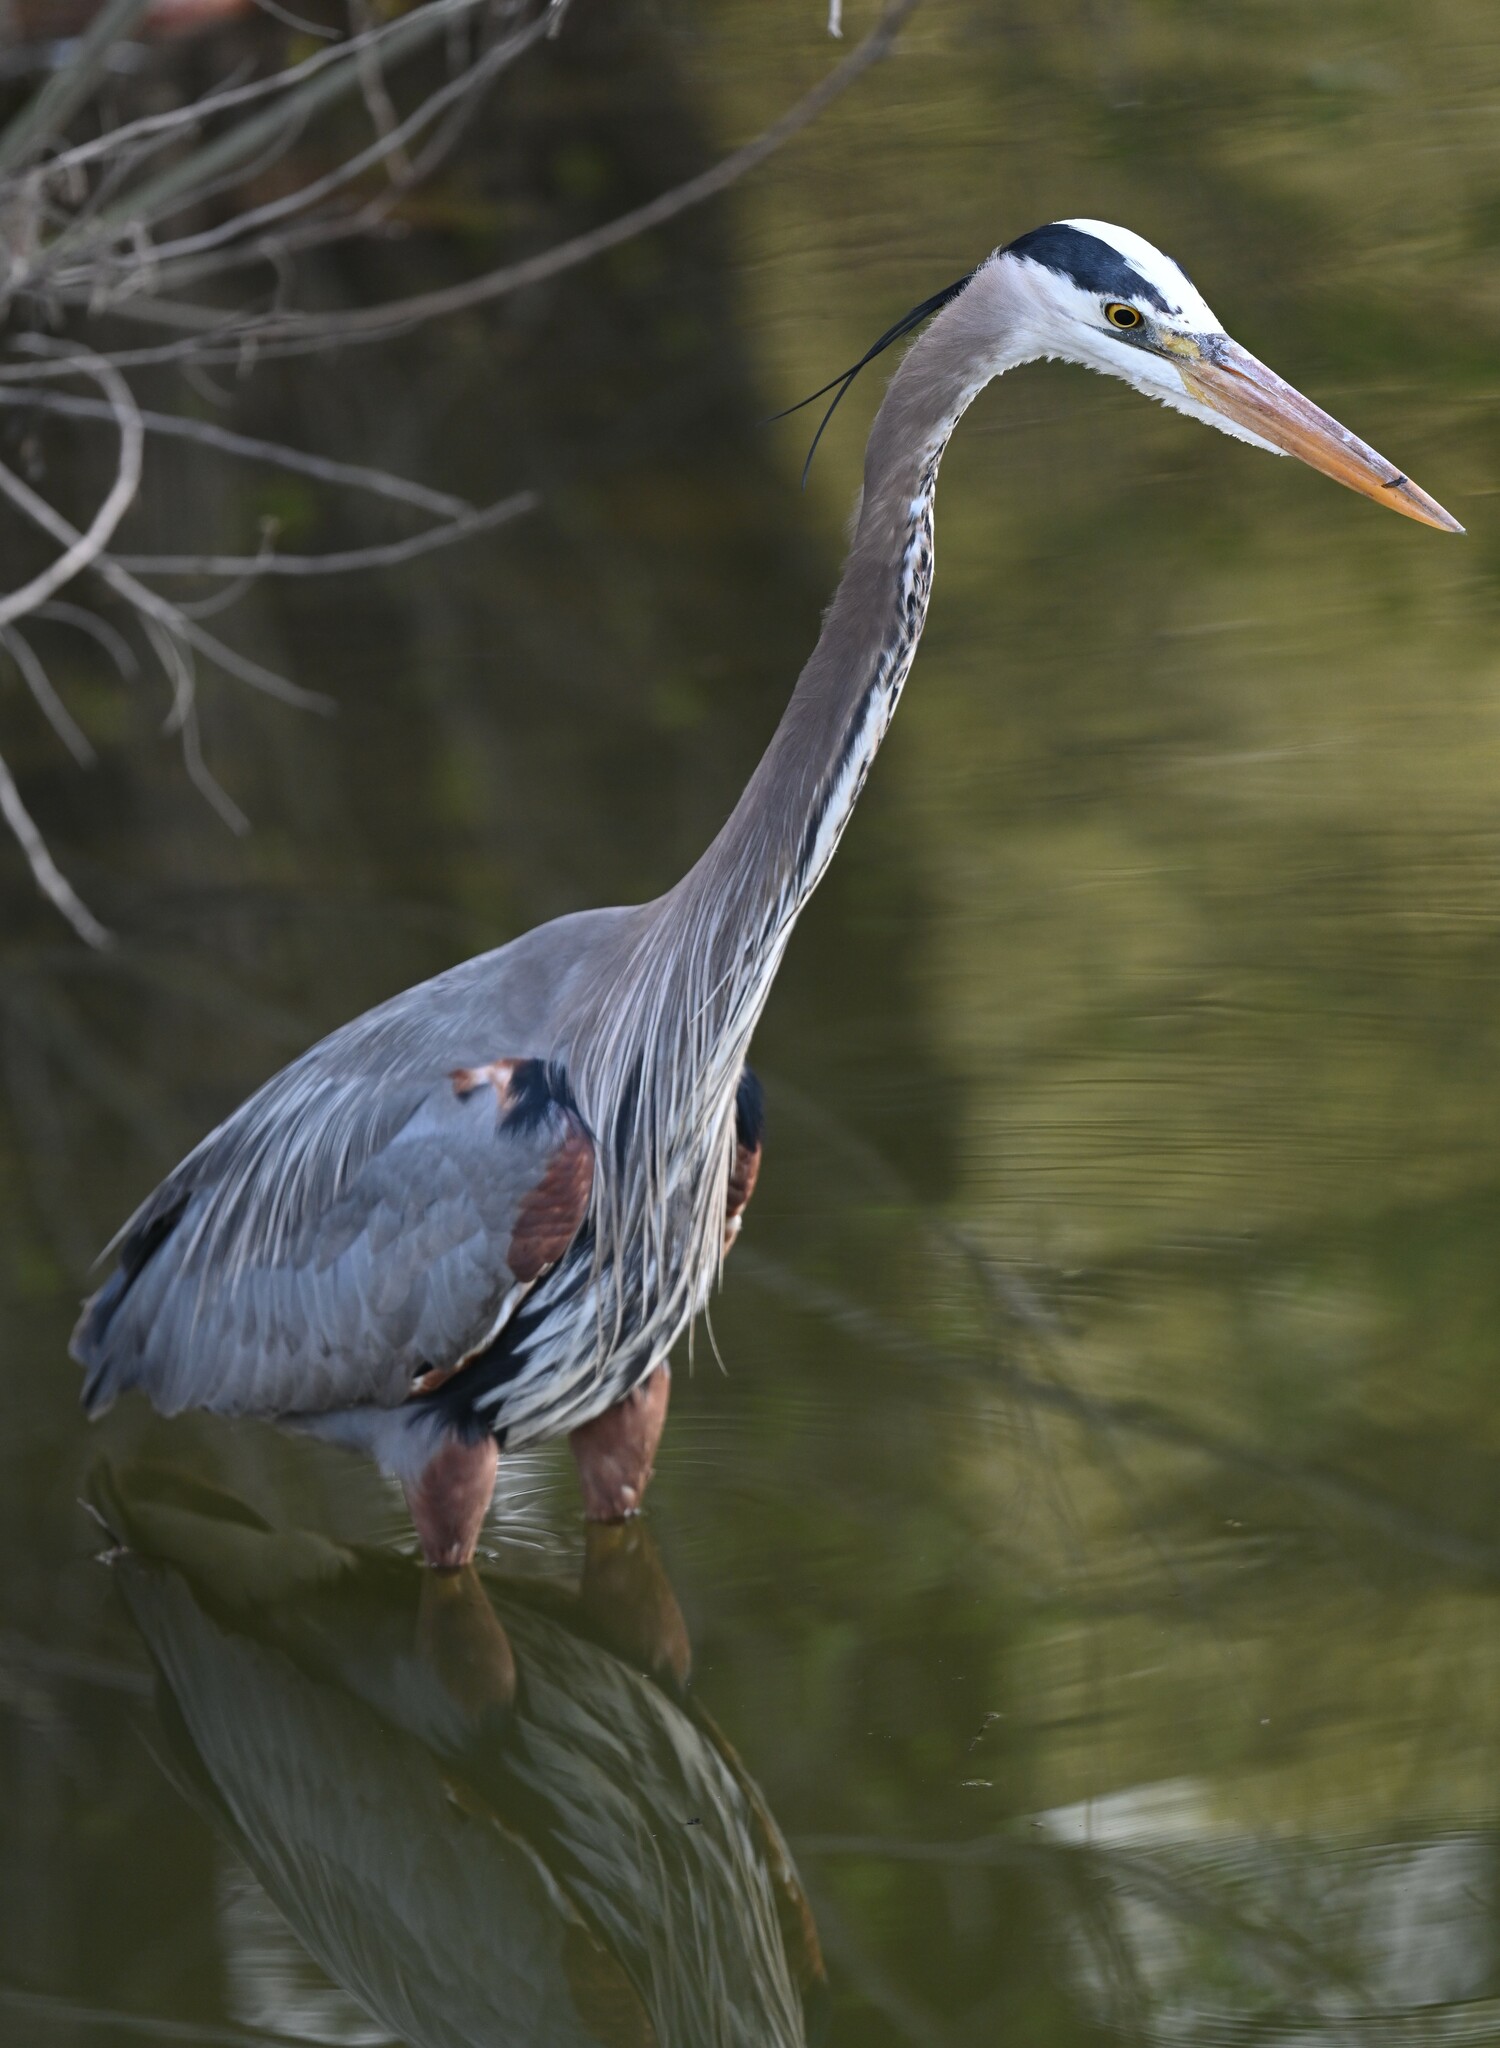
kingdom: Animalia
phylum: Chordata
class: Aves
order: Pelecaniformes
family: Ardeidae
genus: Ardea
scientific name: Ardea herodias
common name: Great blue heron
